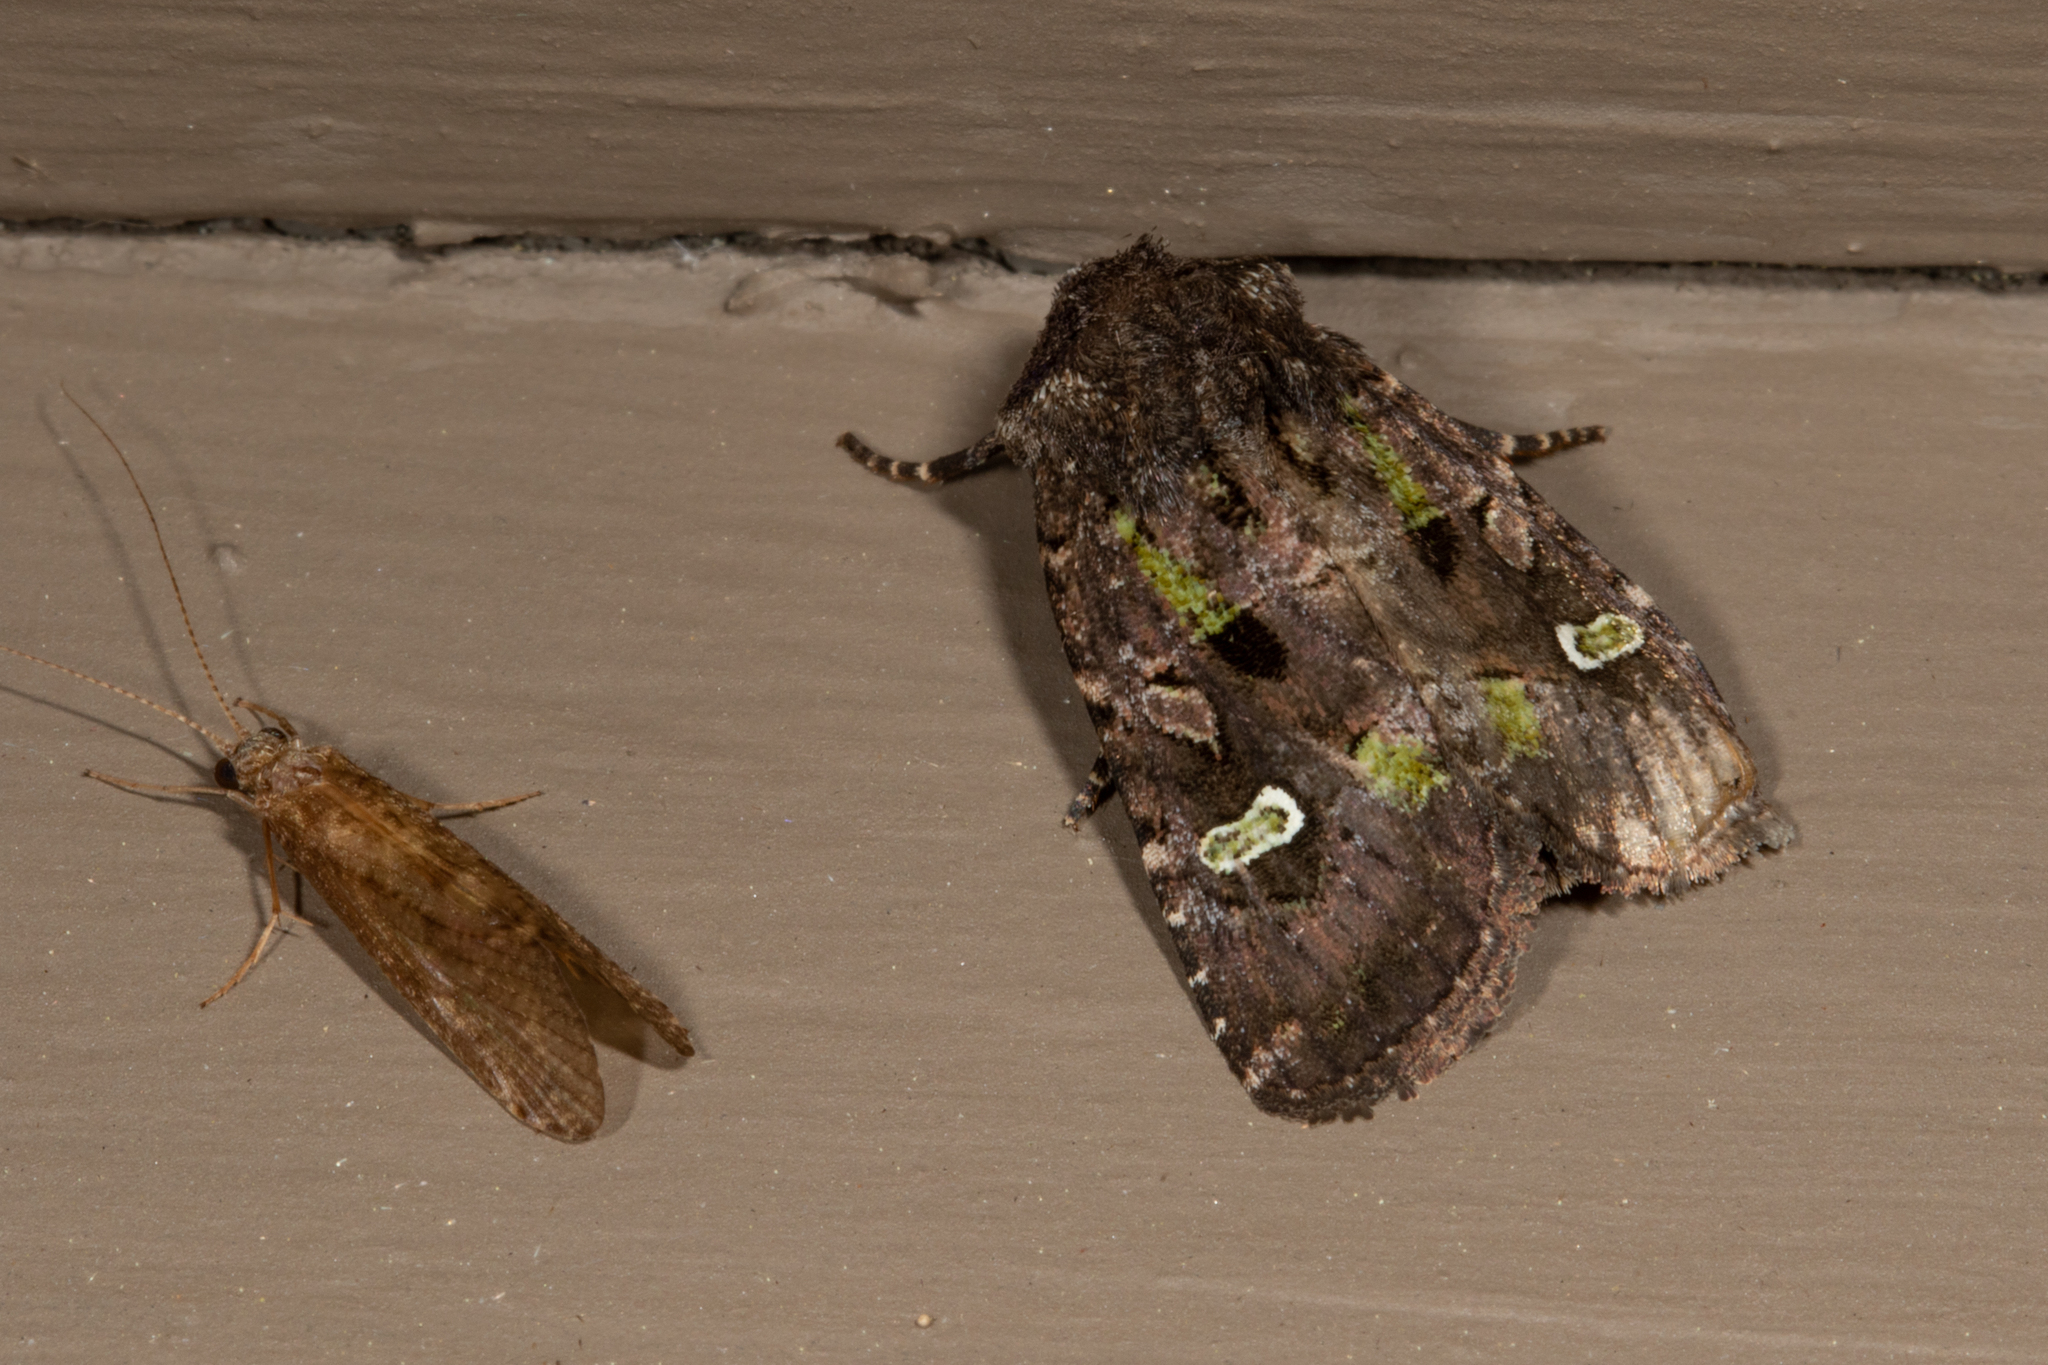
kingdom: Animalia
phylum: Arthropoda
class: Insecta
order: Lepidoptera
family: Noctuidae
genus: Lacinipolia
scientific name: Lacinipolia renigera
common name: Kidney-spotted minor
